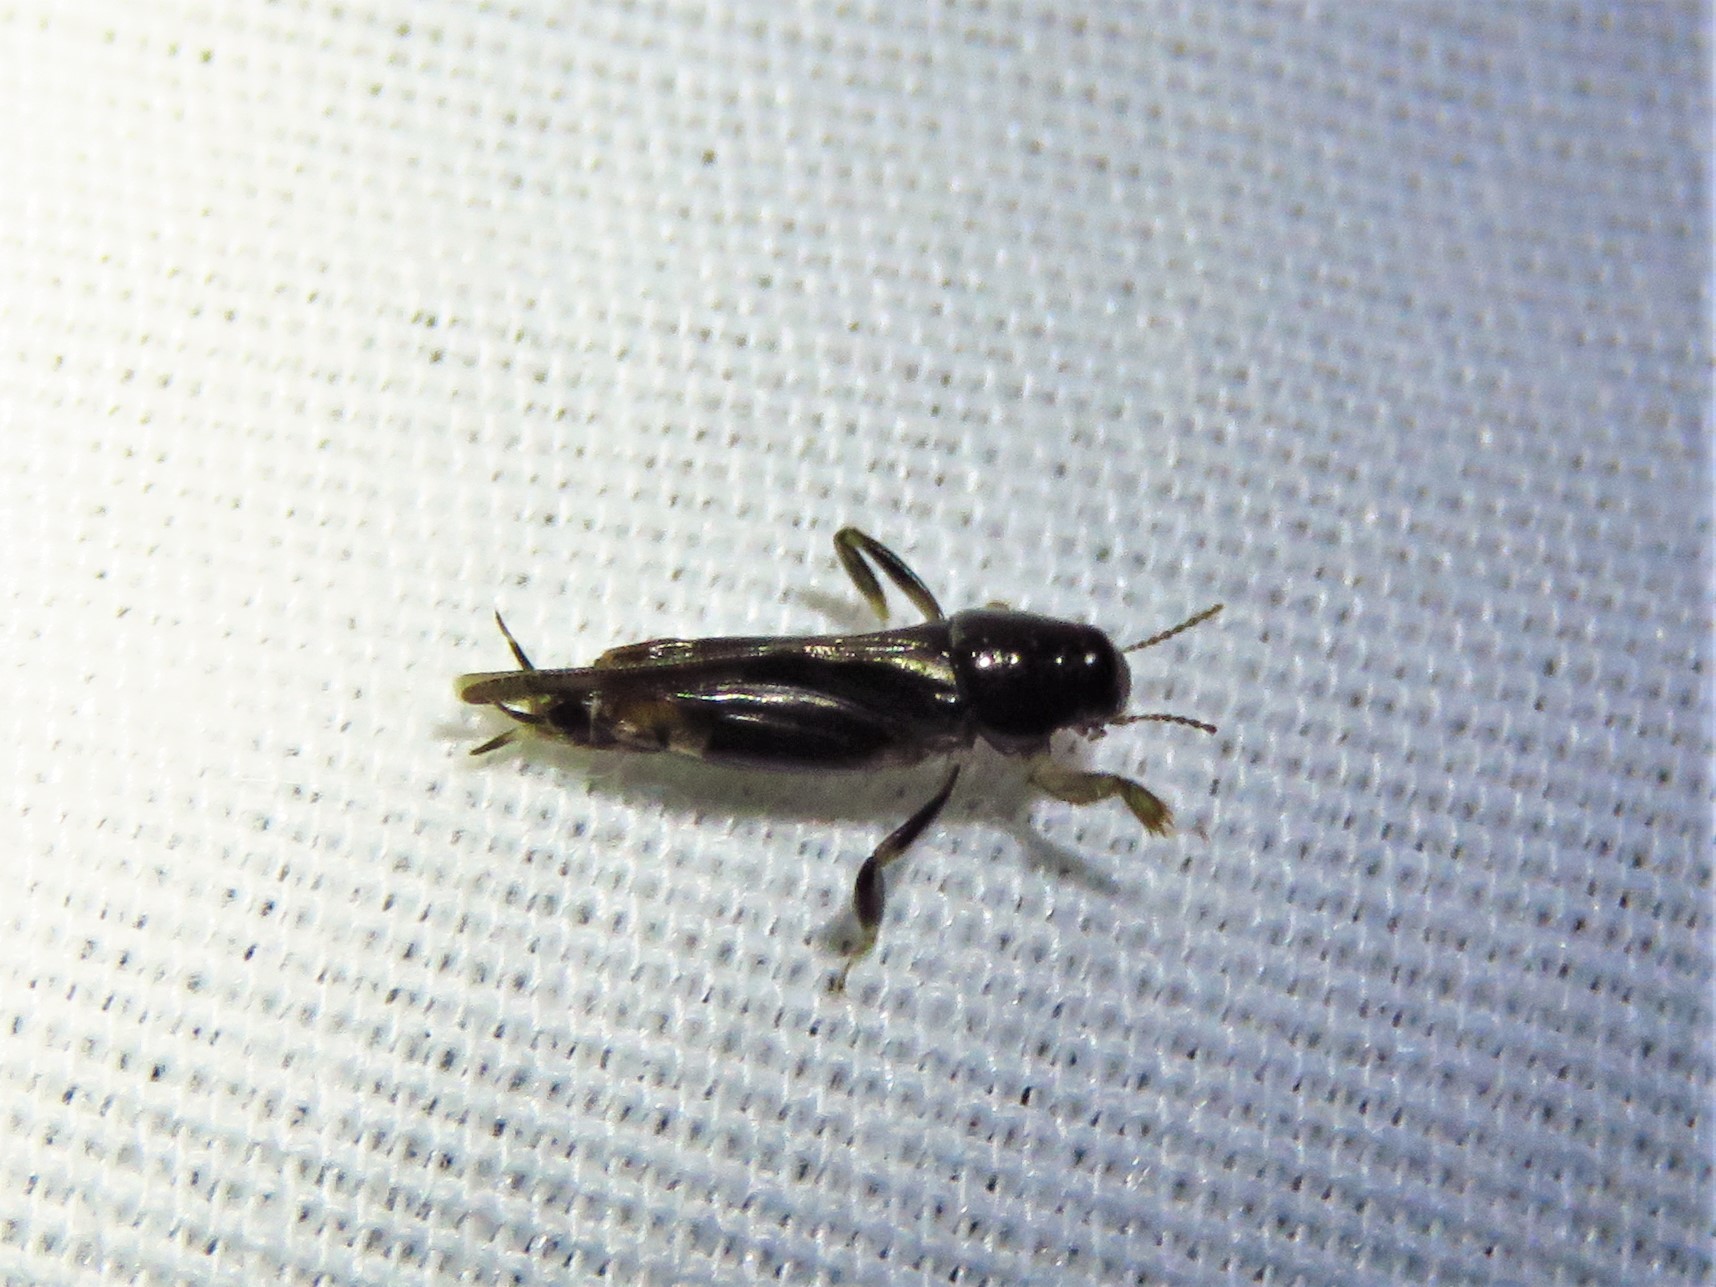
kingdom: Animalia
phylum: Arthropoda
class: Insecta
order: Orthoptera
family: Tridactylidae
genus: Neotridactylus
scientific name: Neotridactylus apicialis
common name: Larger pygmy locust
